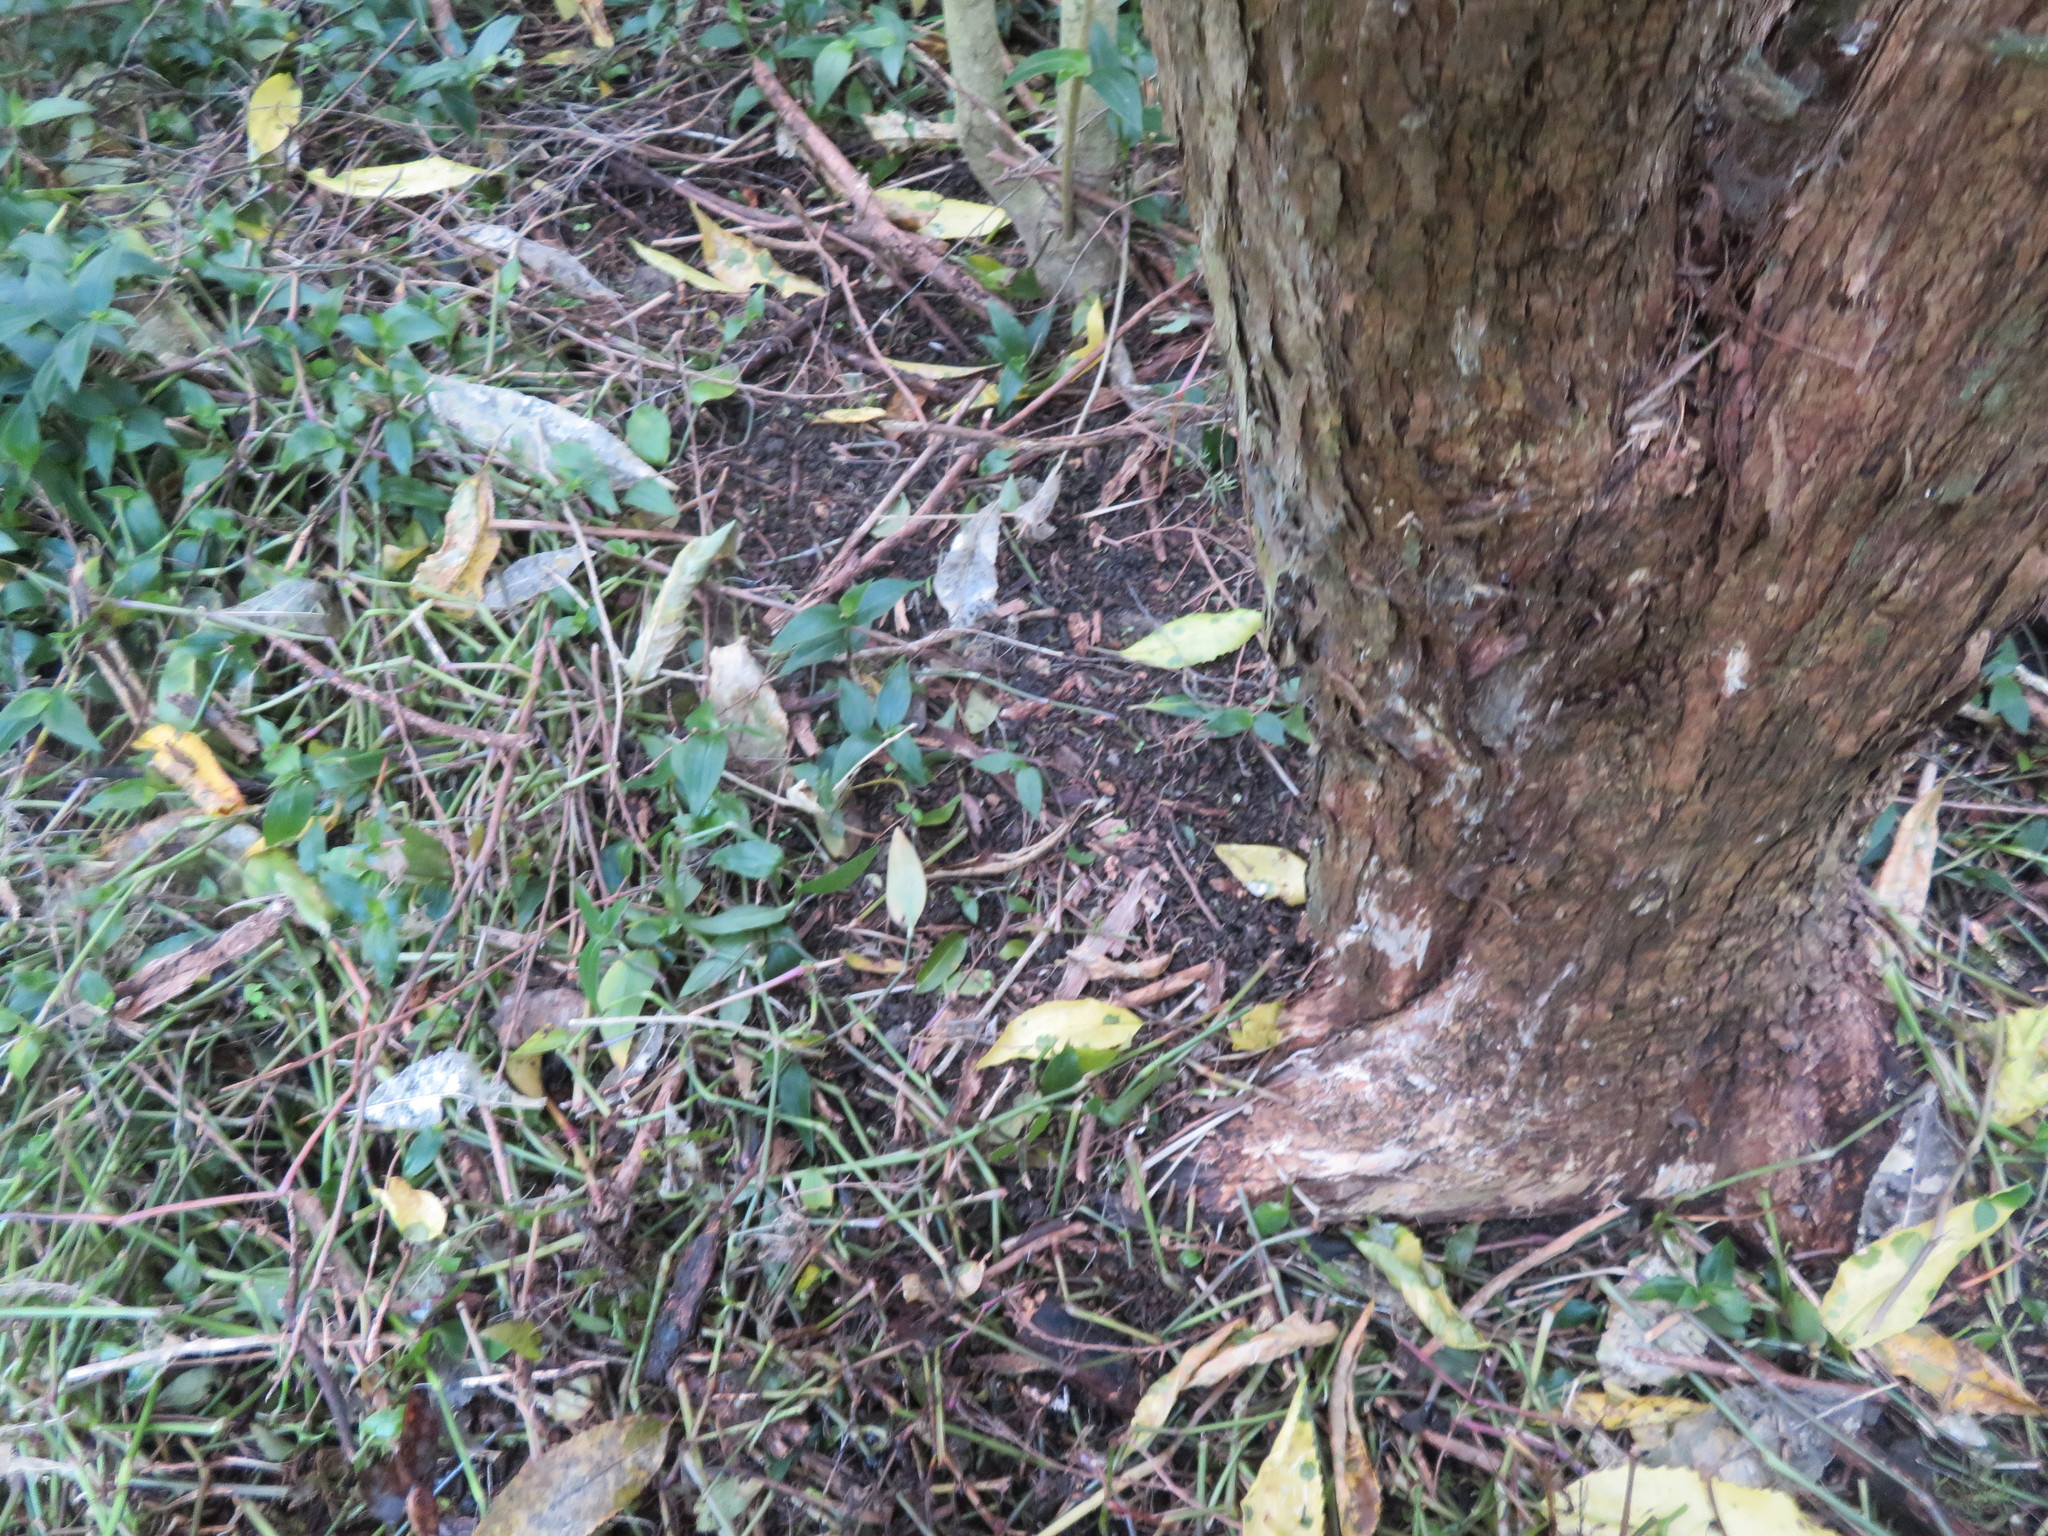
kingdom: Plantae
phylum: Tracheophyta
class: Liliopsida
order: Commelinales
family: Commelinaceae
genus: Tradescantia
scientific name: Tradescantia fluminensis
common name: Wandering-jew
